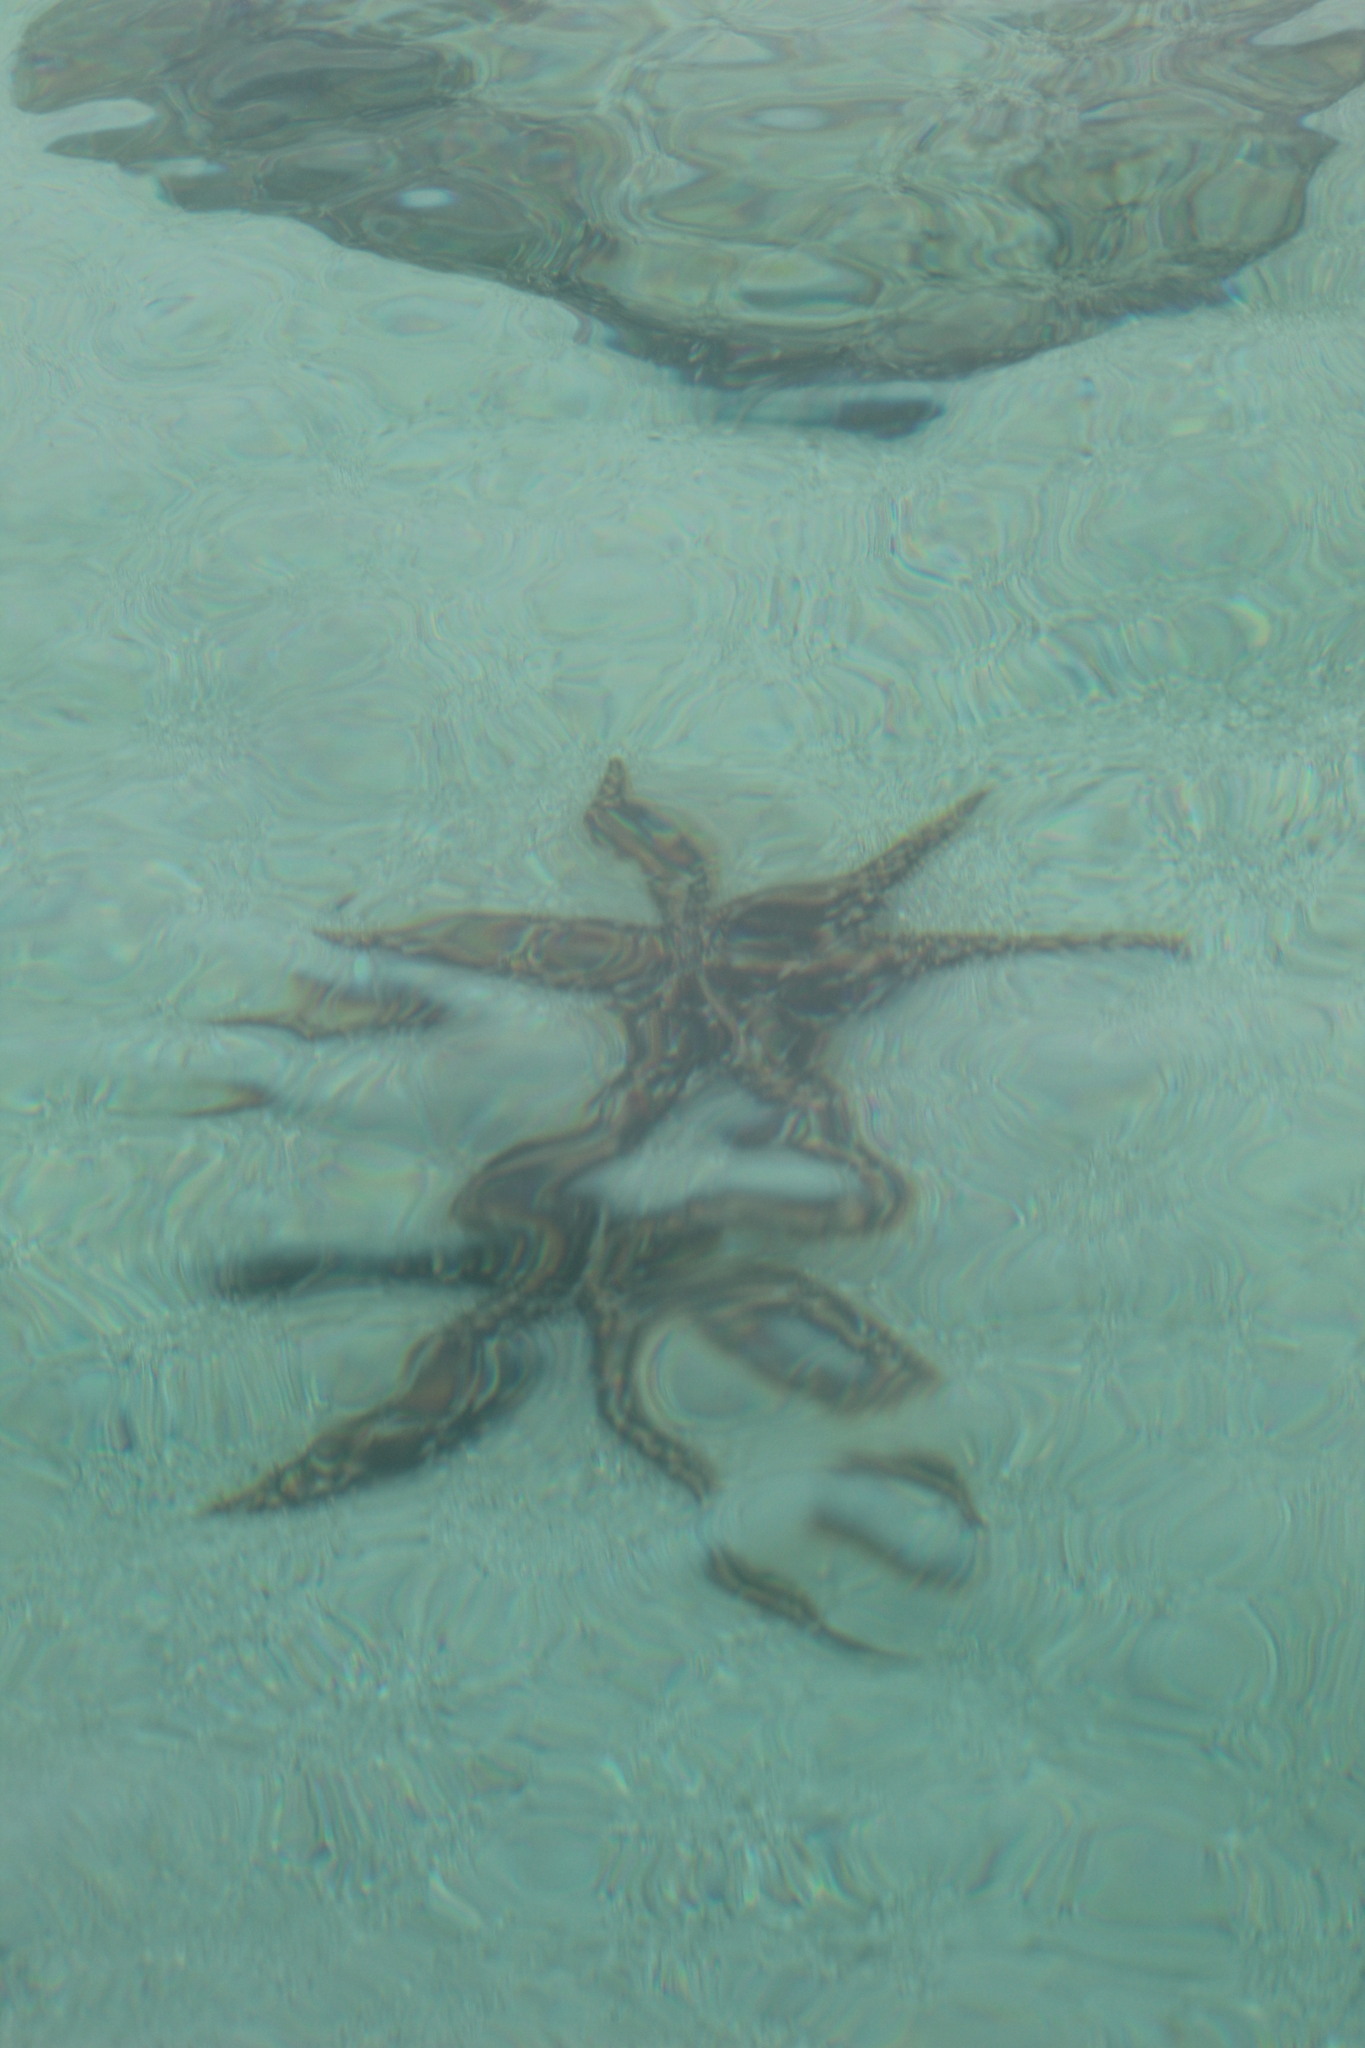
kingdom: Animalia
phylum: Echinodermata
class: Asteroidea
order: Paxillosida
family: Luidiidae
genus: Luidia
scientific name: Luidia magellanica
